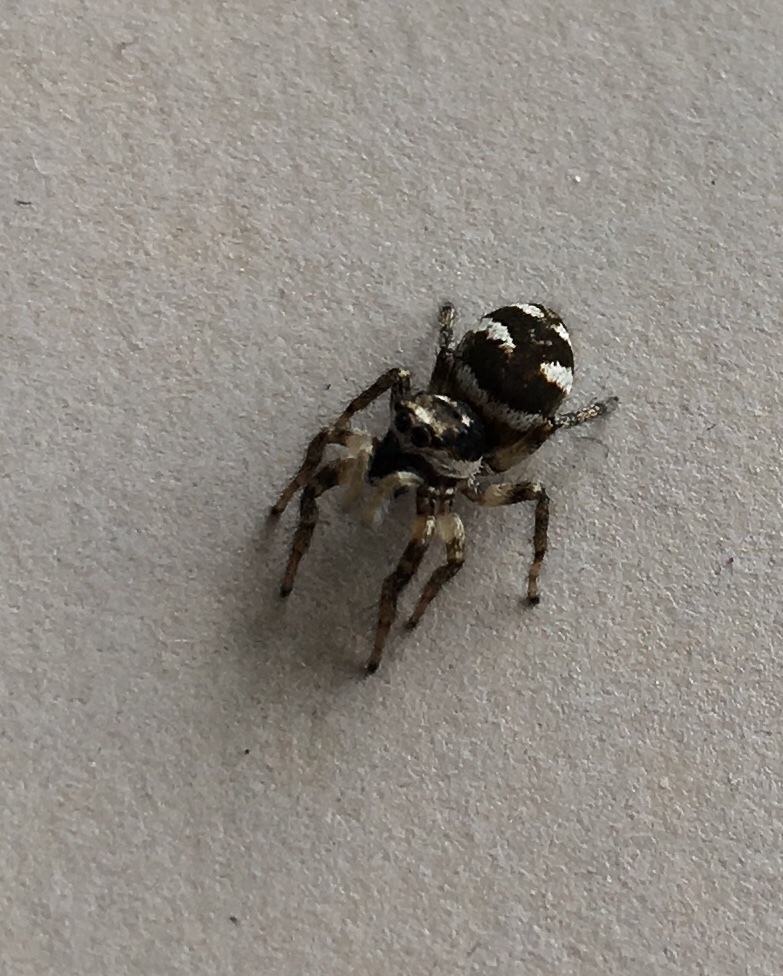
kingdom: Animalia
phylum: Arthropoda
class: Arachnida
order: Araneae
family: Salticidae
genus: Salticus
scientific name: Salticus scenicus
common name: Zebra jumper
